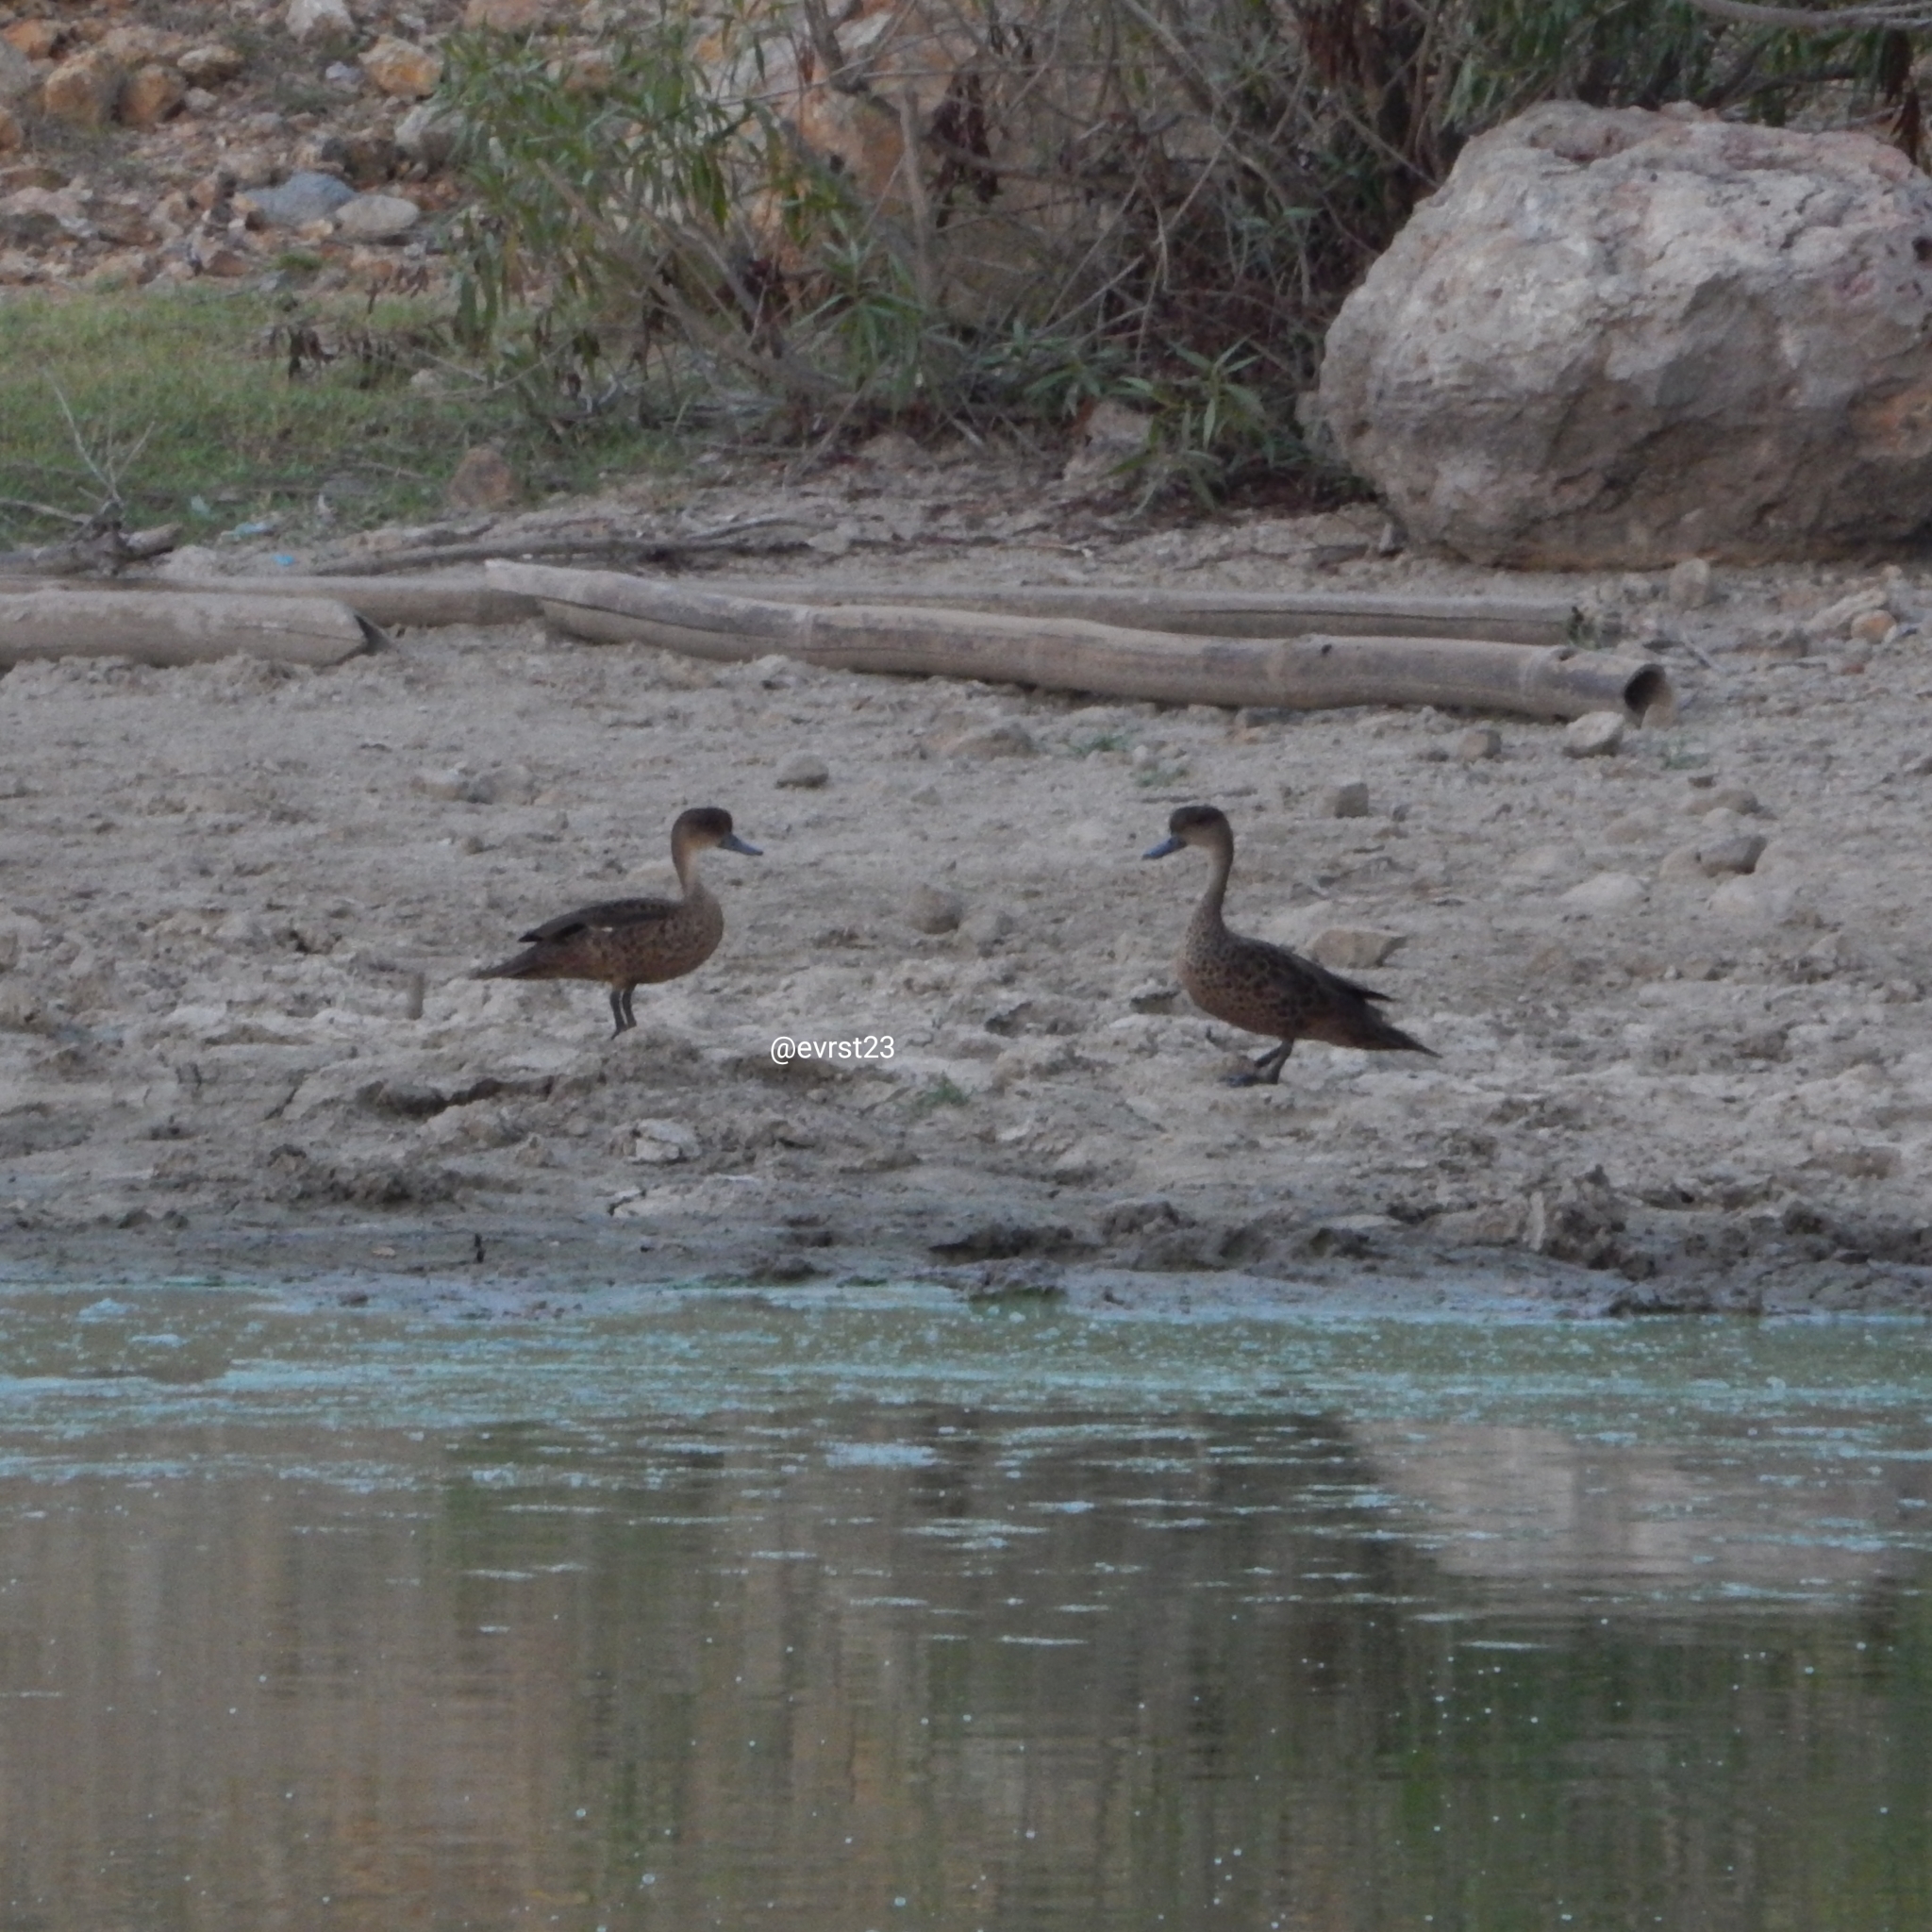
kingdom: Animalia
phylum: Chordata
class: Aves
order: Anseriformes
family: Anatidae
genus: Anas
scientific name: Anas gibberifrons
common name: Sunda teal
